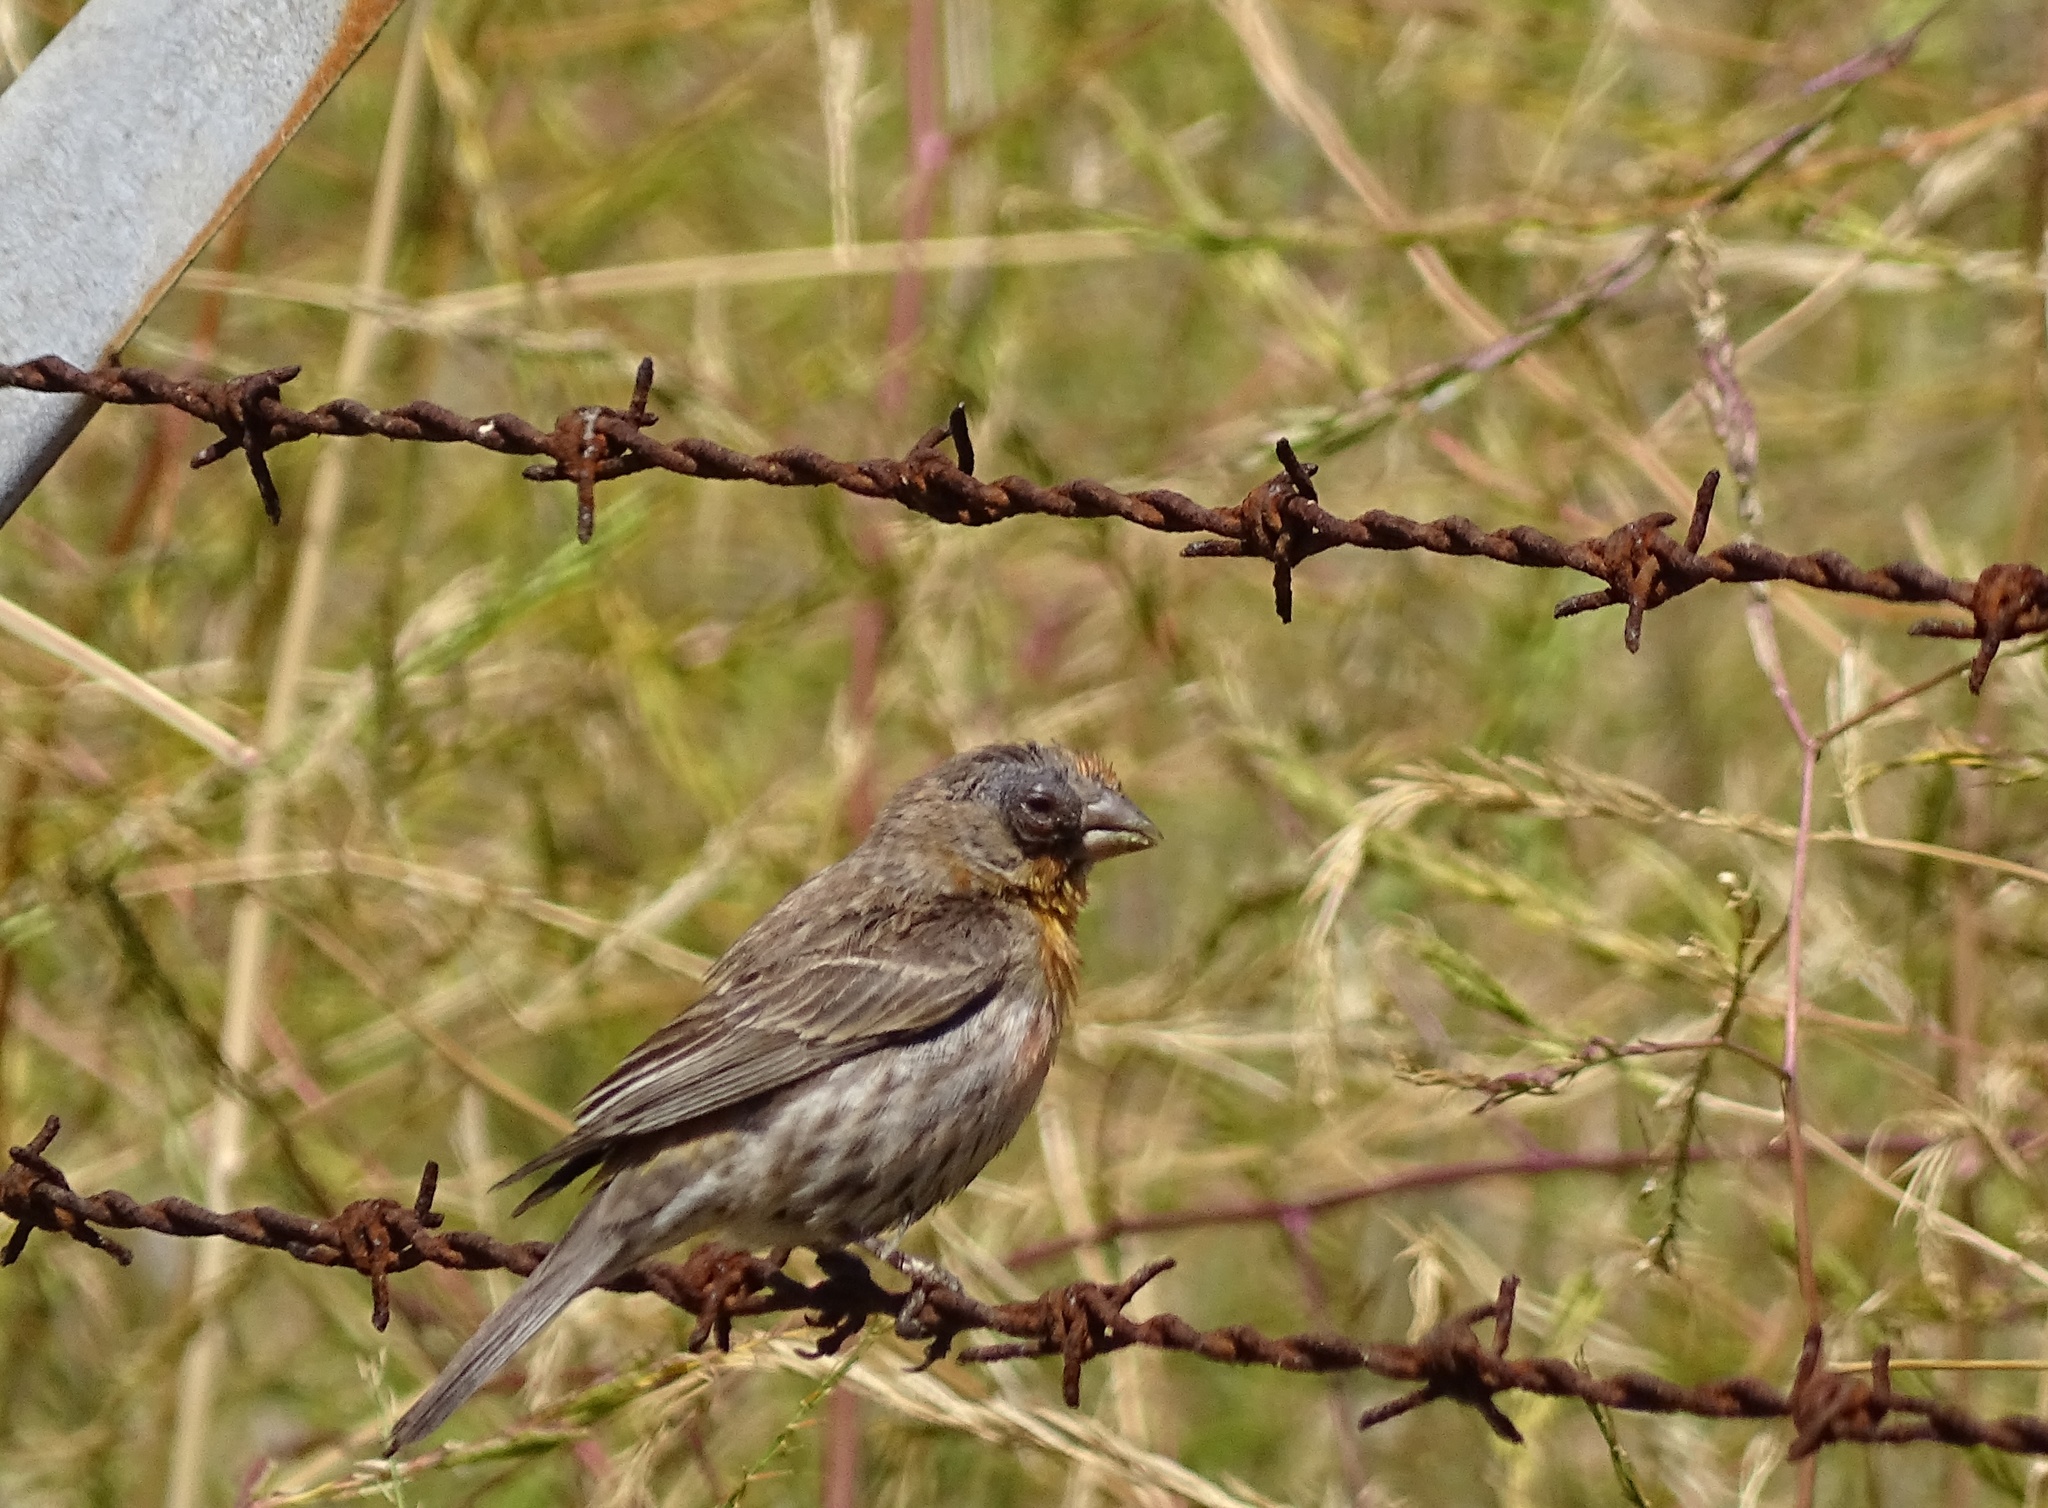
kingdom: Animalia
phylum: Chordata
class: Aves
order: Passeriformes
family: Fringillidae
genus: Haemorhous
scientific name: Haemorhous mexicanus
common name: House finch
